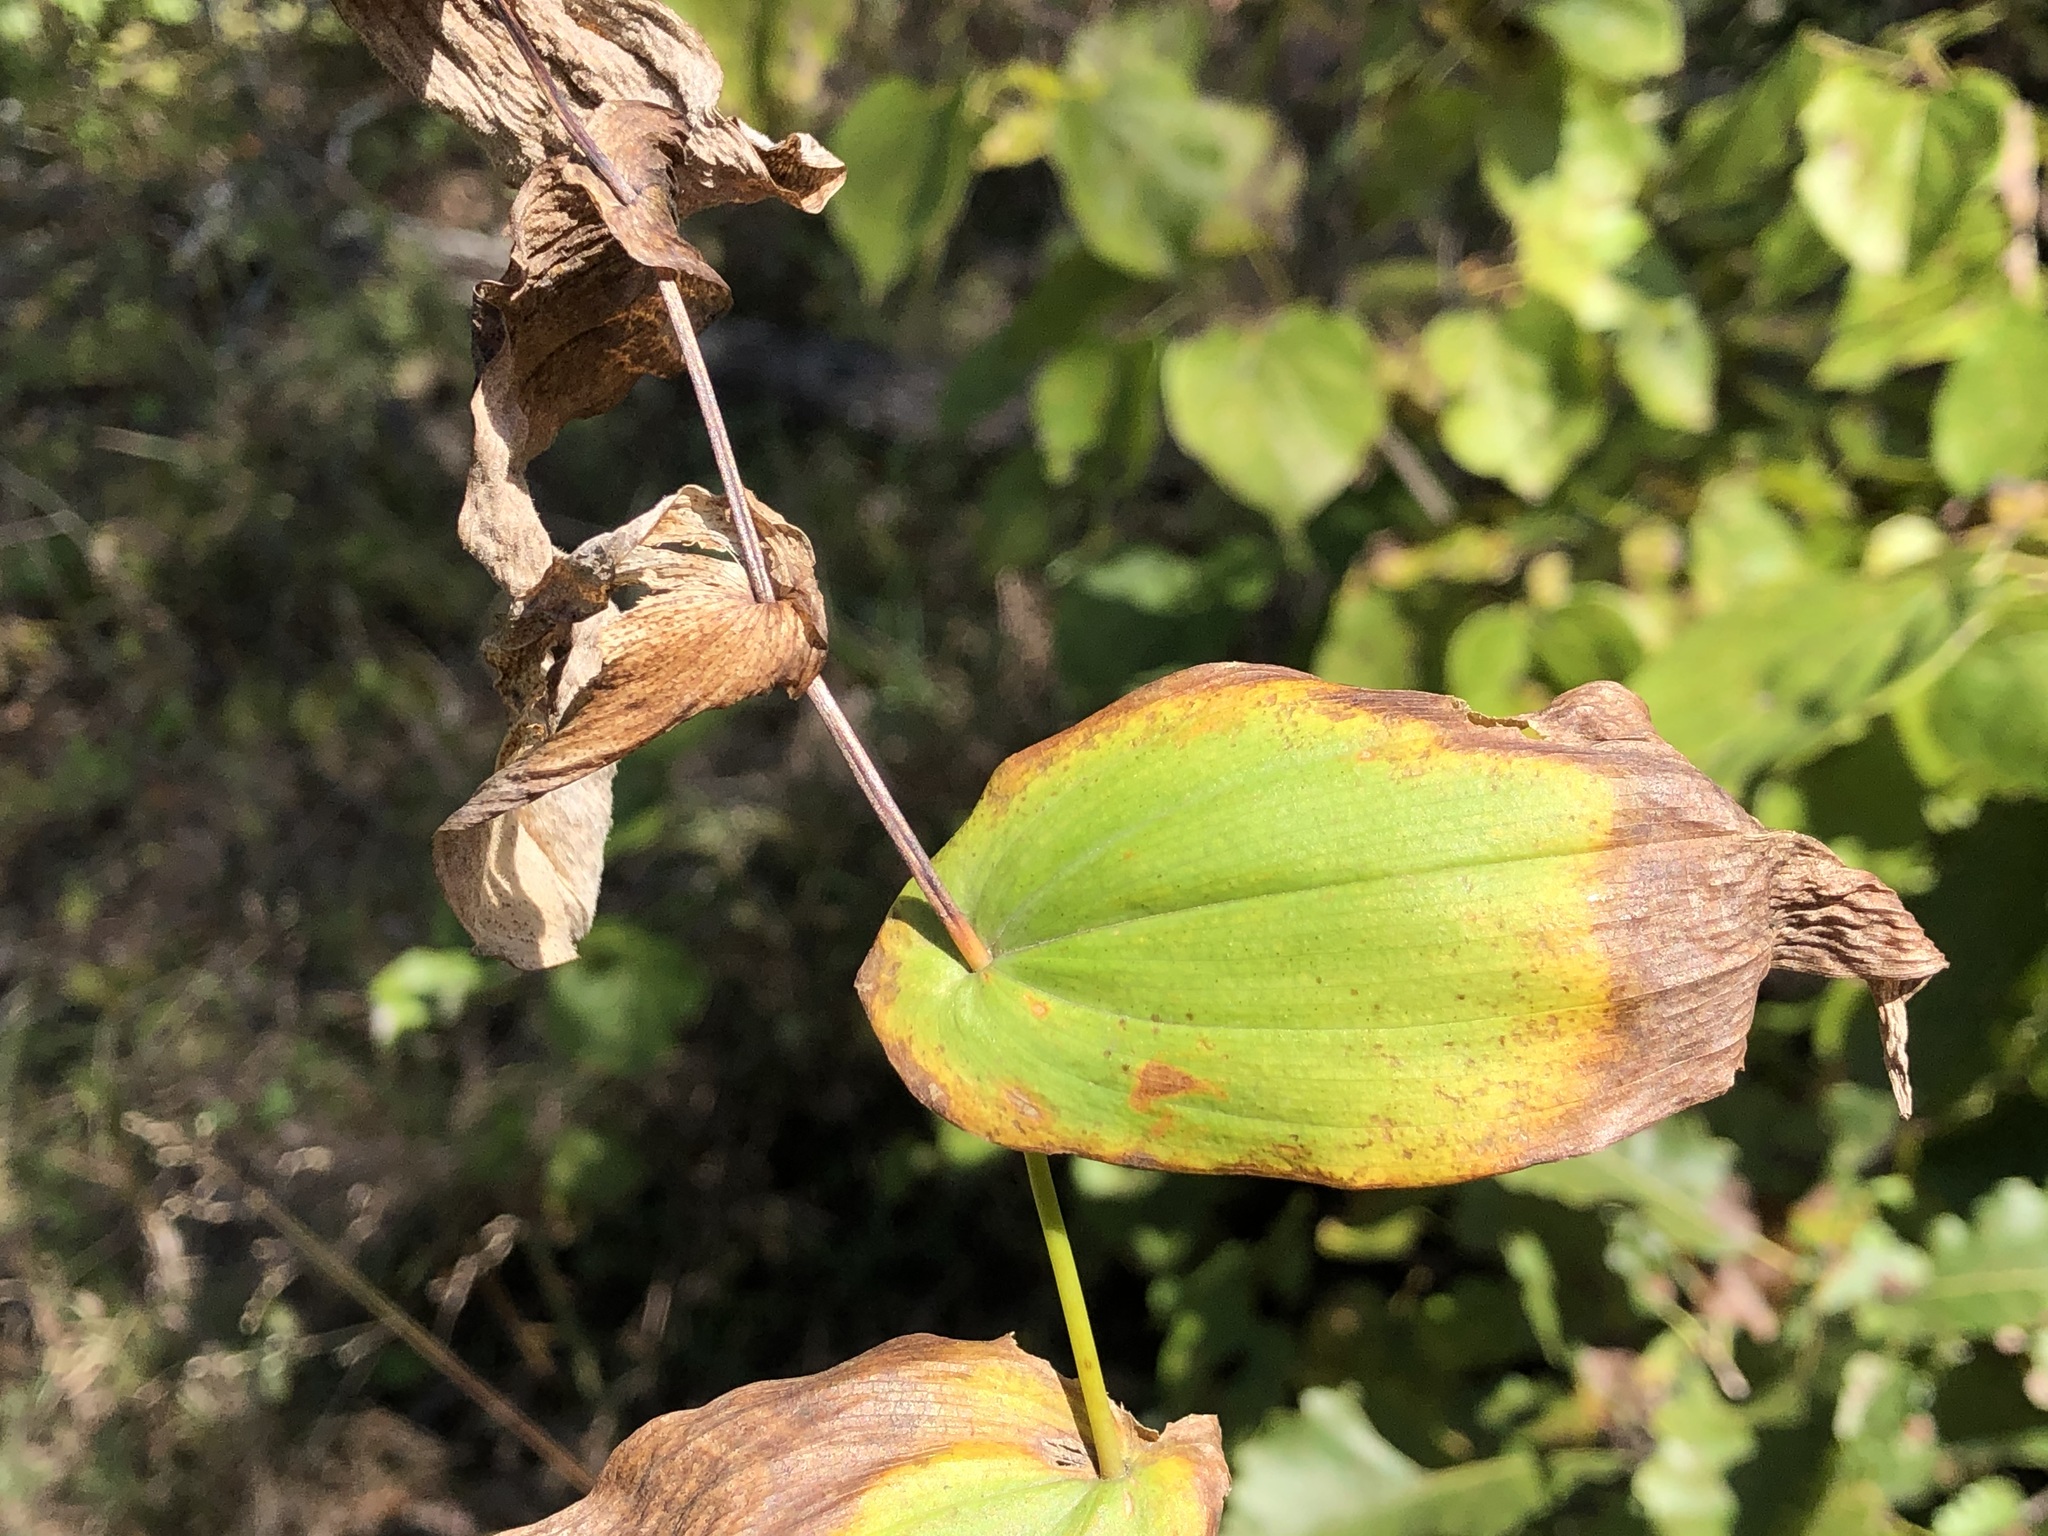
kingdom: Plantae
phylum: Tracheophyta
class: Liliopsida
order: Liliales
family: Colchicaceae
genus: Uvularia
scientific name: Uvularia grandiflora
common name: Bellwort
